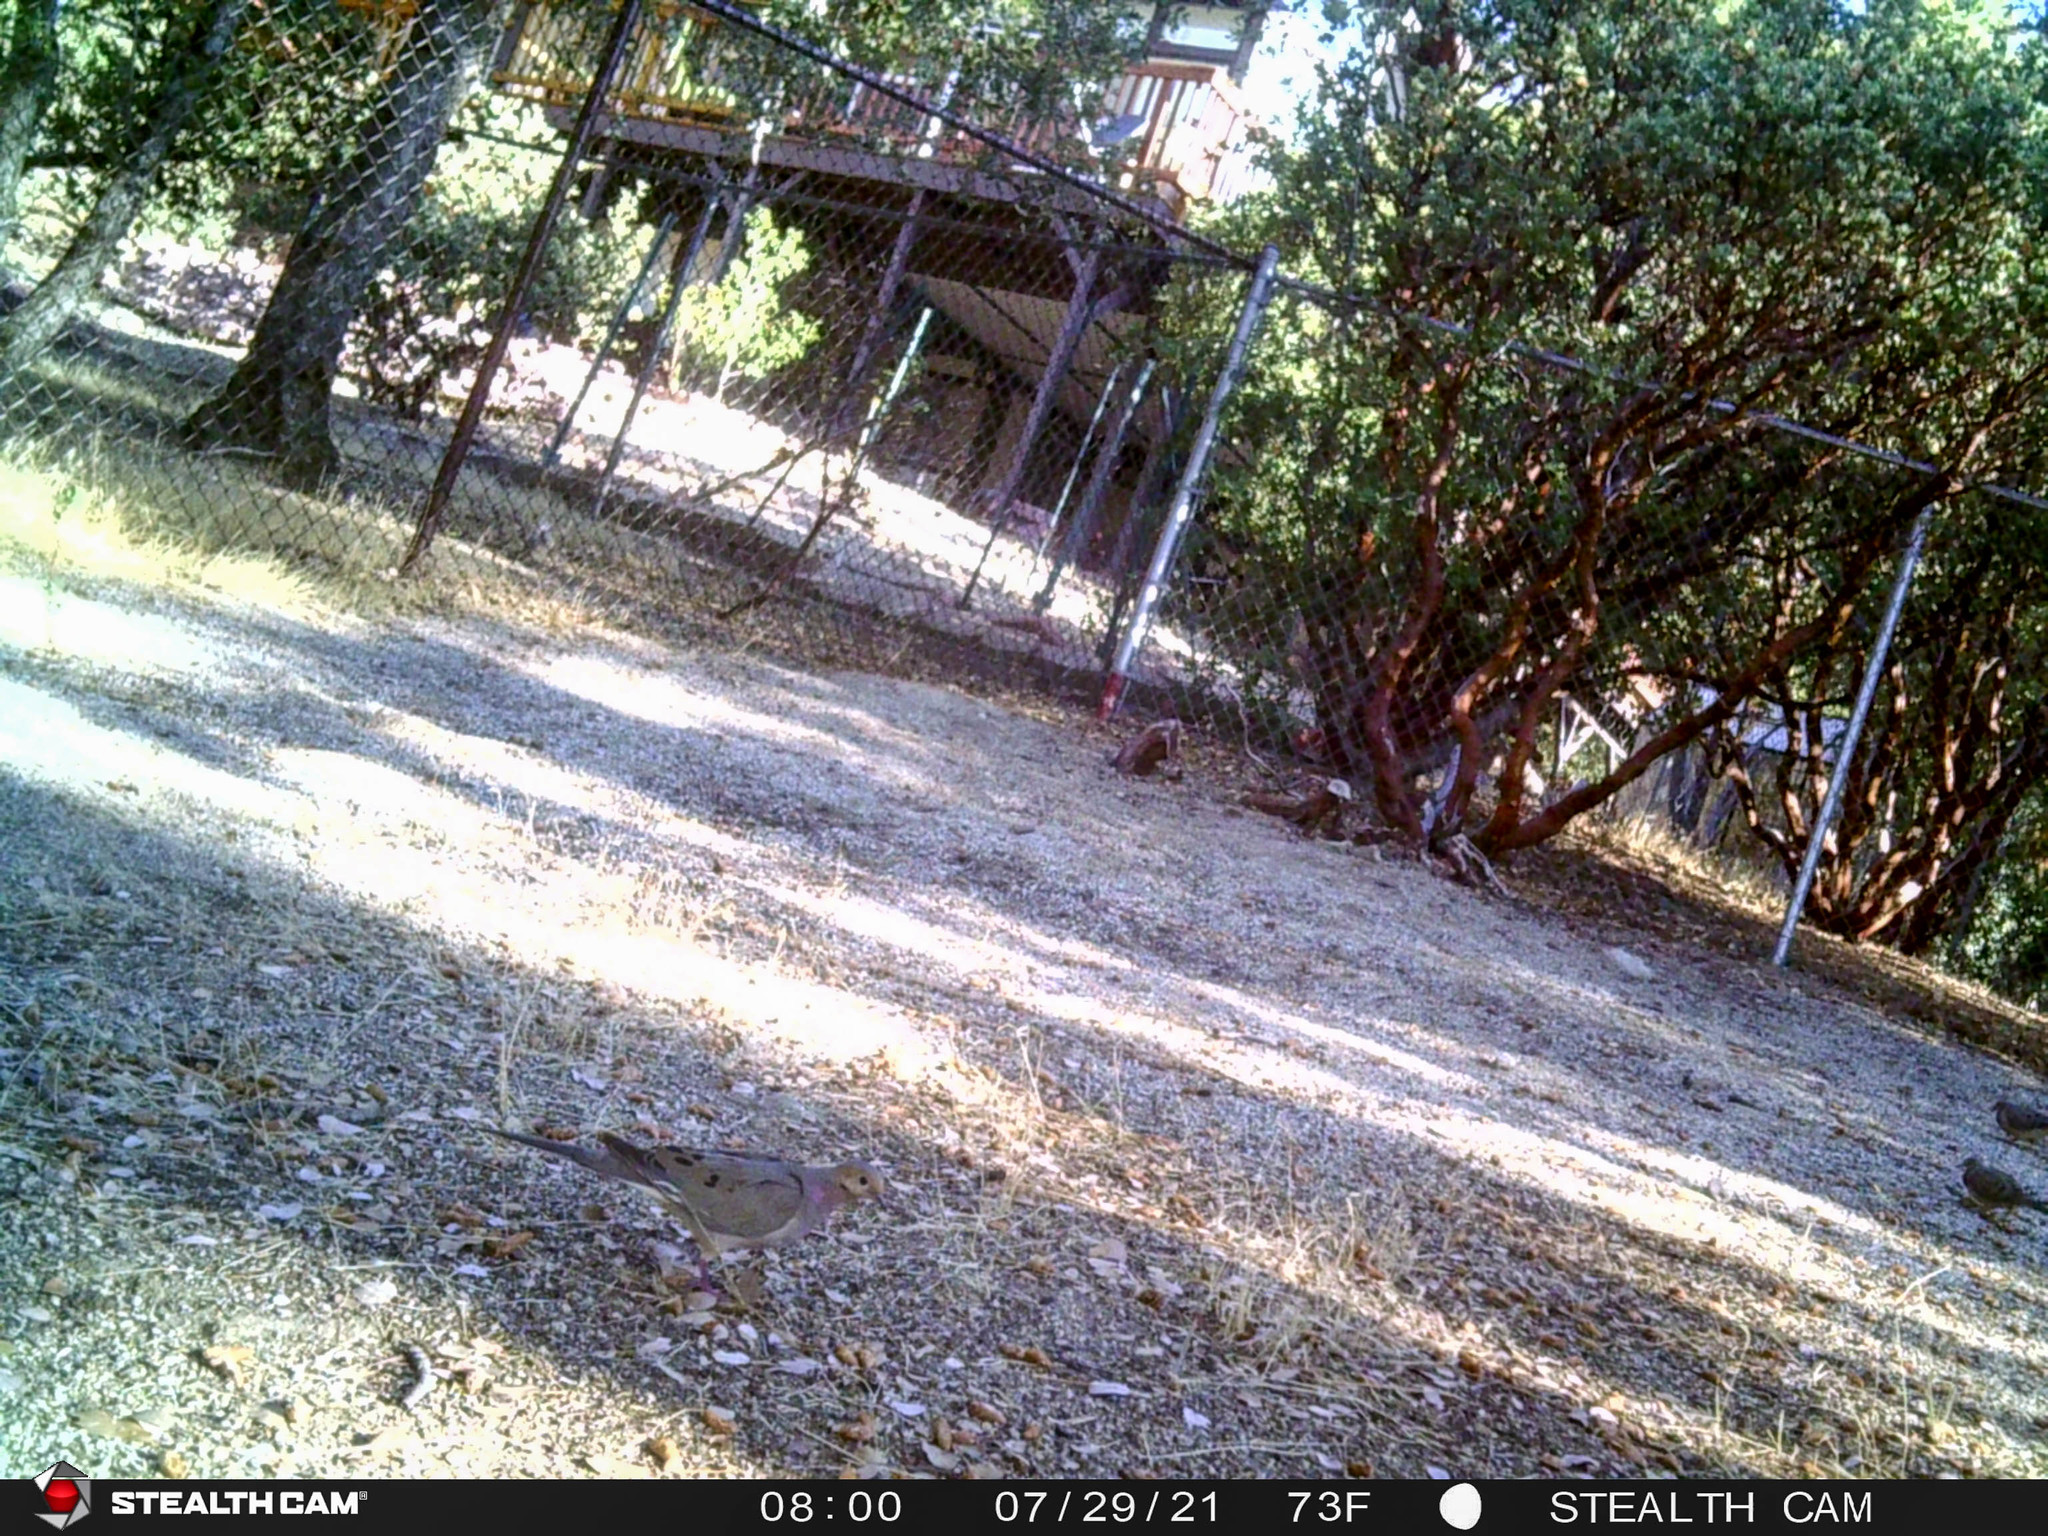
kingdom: Animalia
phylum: Chordata
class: Aves
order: Columbiformes
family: Columbidae
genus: Zenaida
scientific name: Zenaida macroura
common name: Mourning dove
